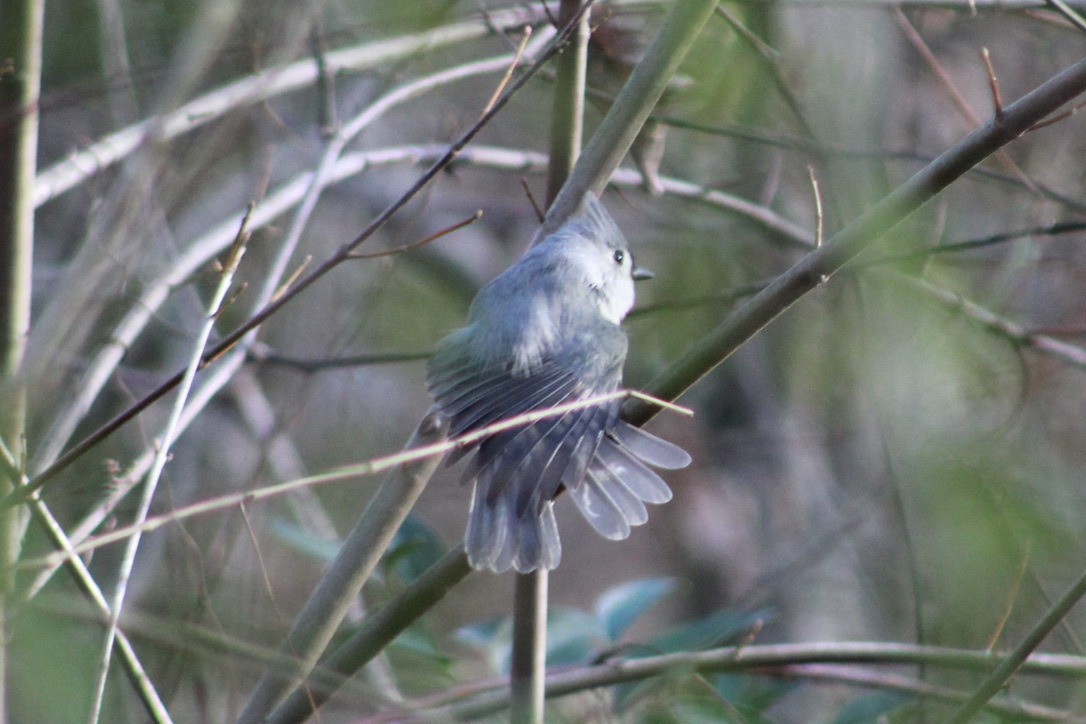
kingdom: Animalia
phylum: Chordata
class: Aves
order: Passeriformes
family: Paridae
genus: Baeolophus
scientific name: Baeolophus bicolor
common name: Tufted titmouse
